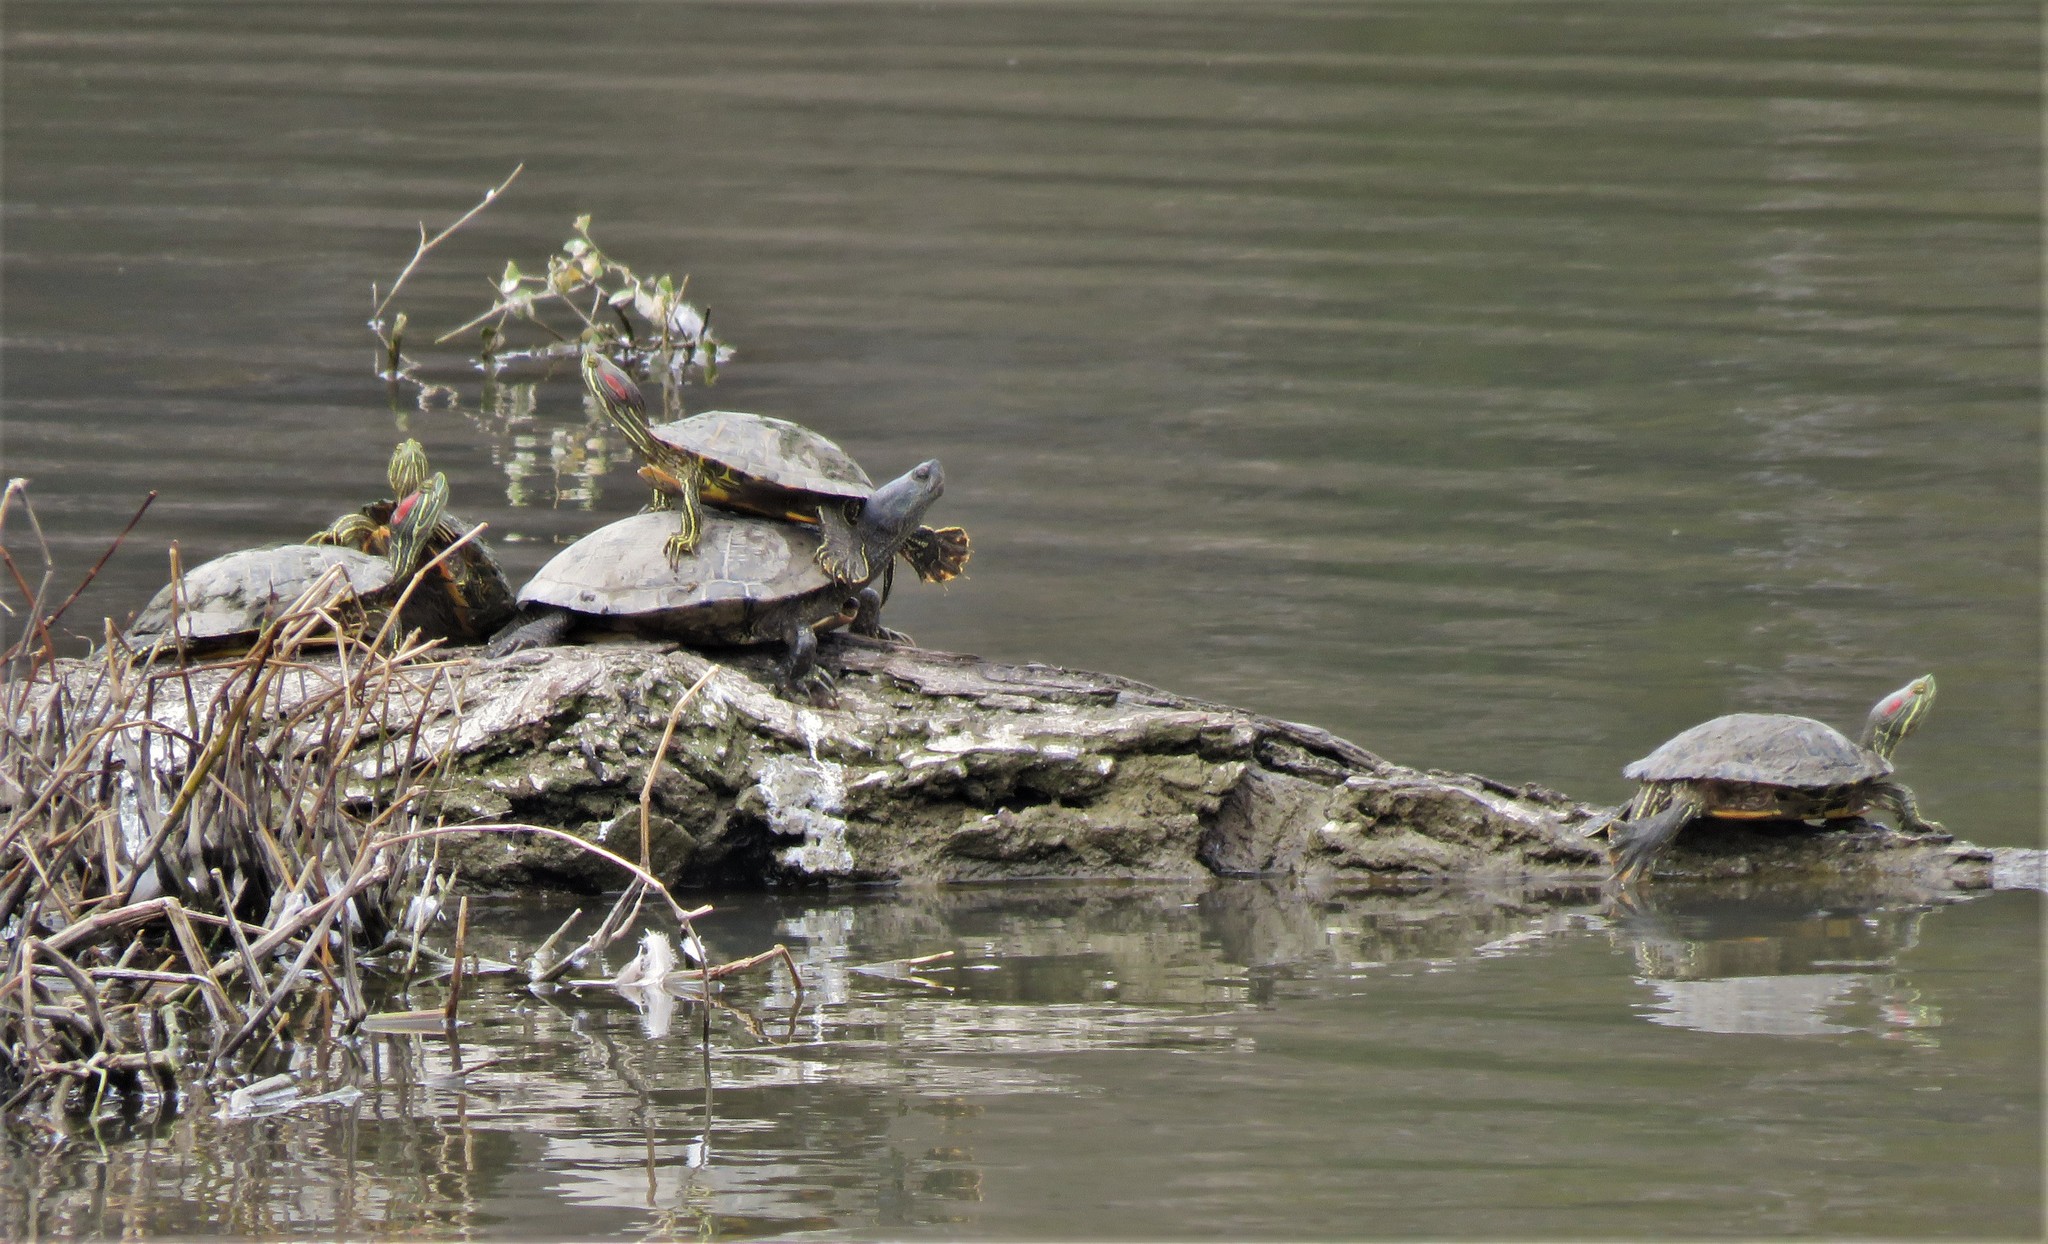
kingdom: Animalia
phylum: Chordata
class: Testudines
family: Emydidae
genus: Trachemys
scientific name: Trachemys scripta
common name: Slider
